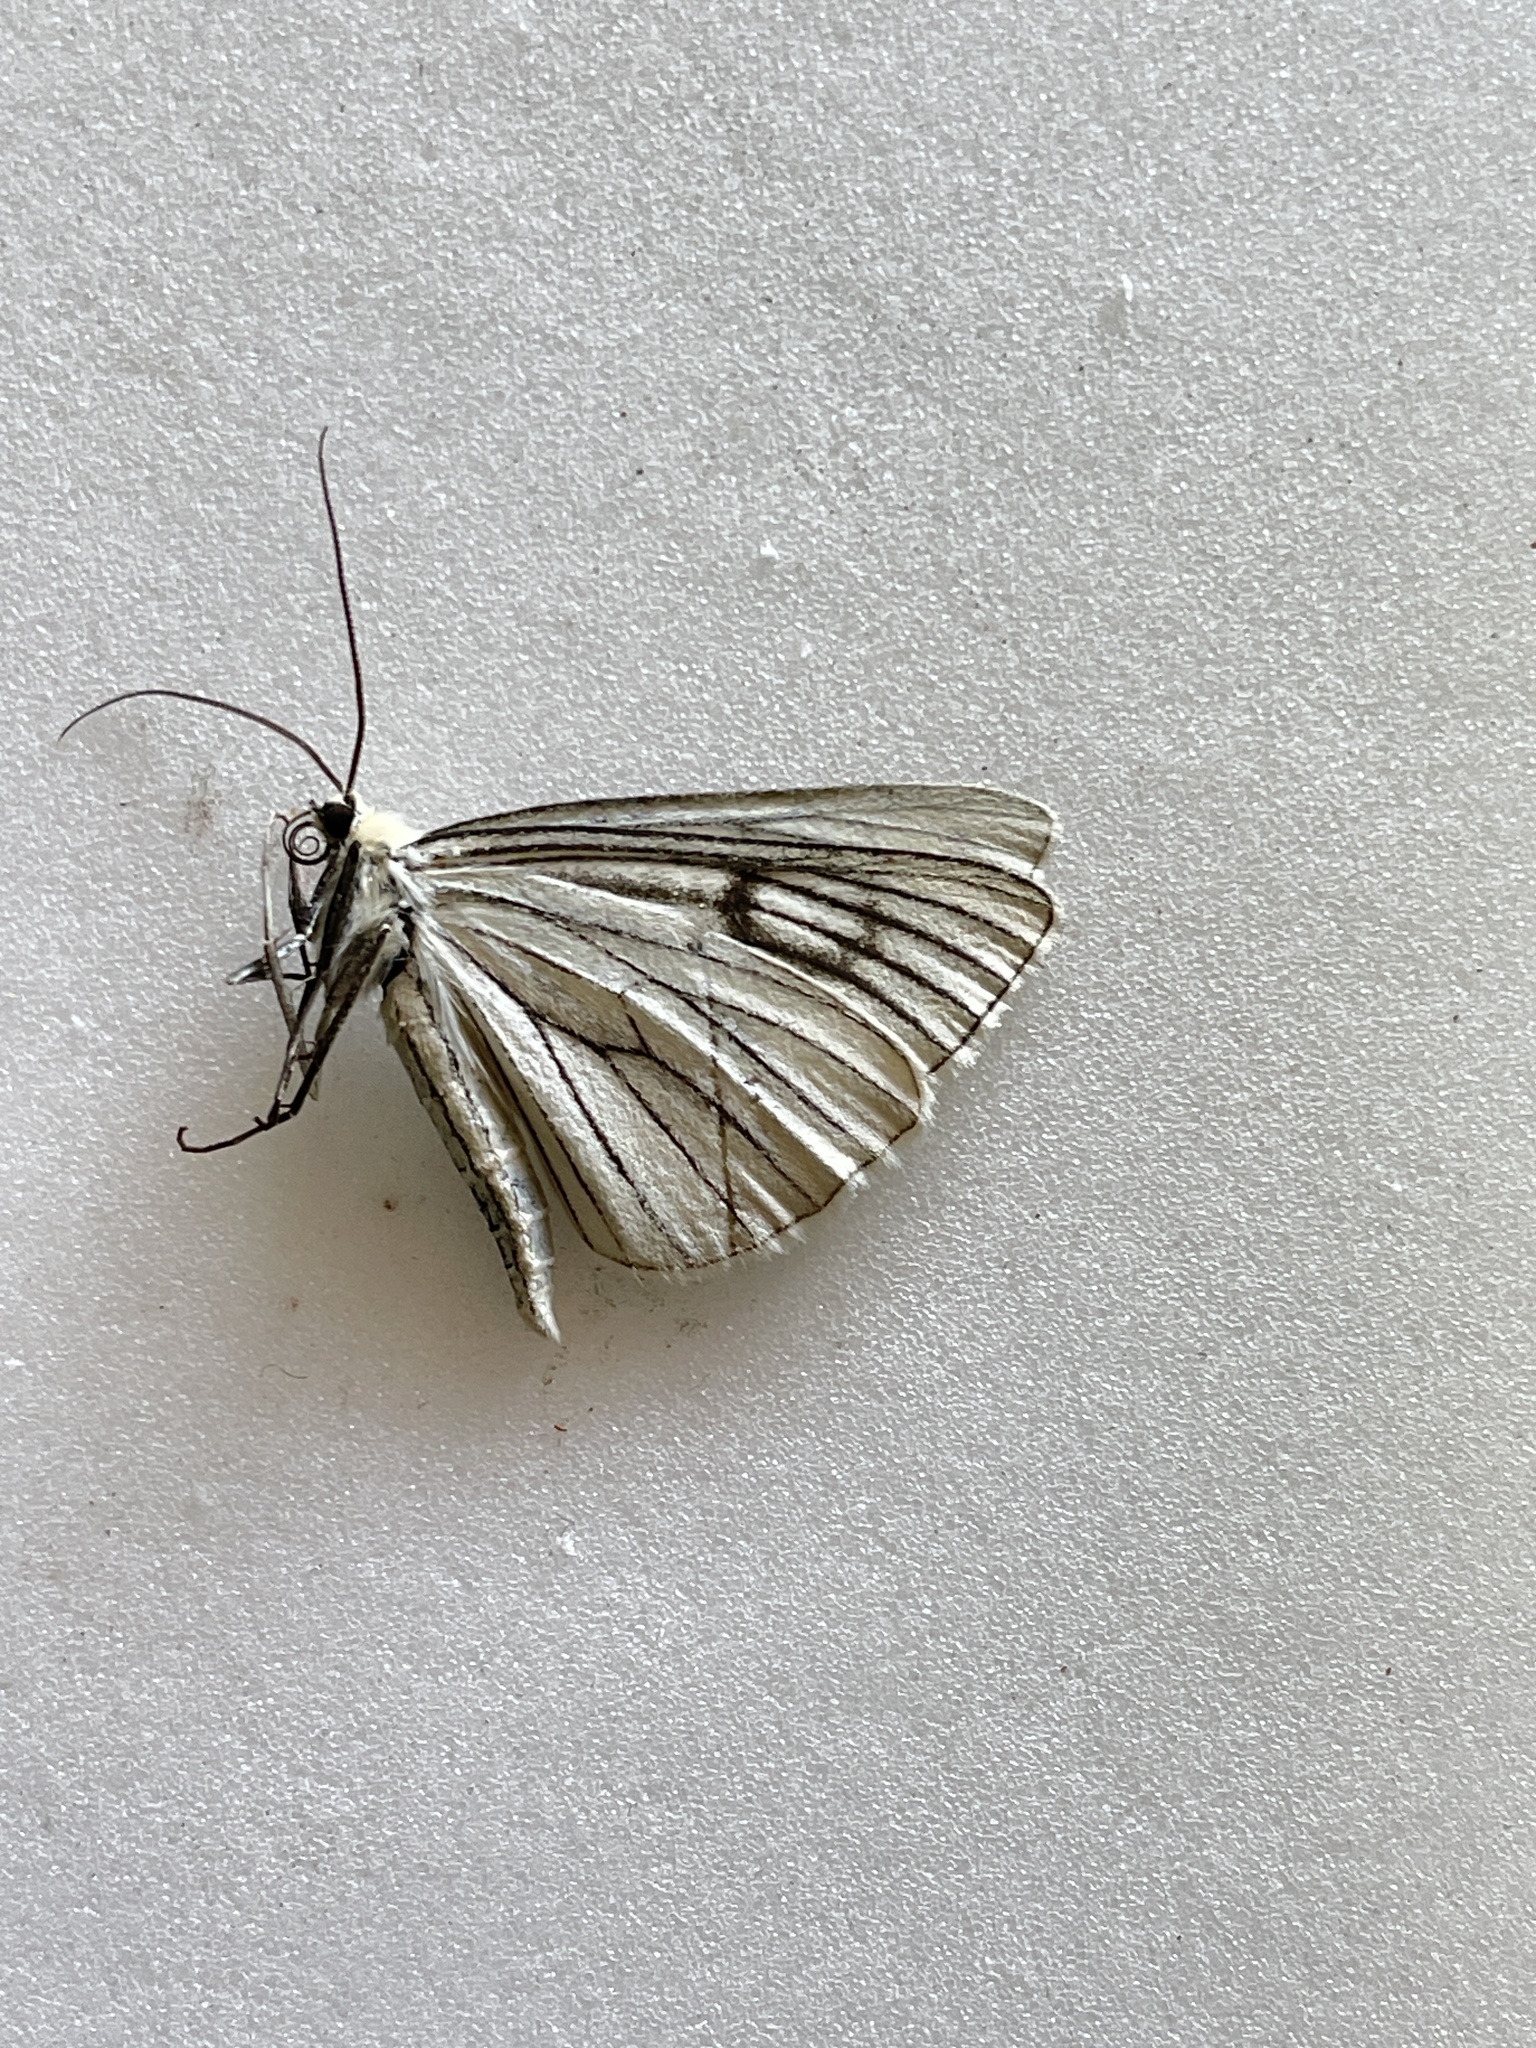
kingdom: Animalia
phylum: Arthropoda
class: Insecta
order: Lepidoptera
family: Geometridae
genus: Siona
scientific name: Siona lineata
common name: Black-veined moth
